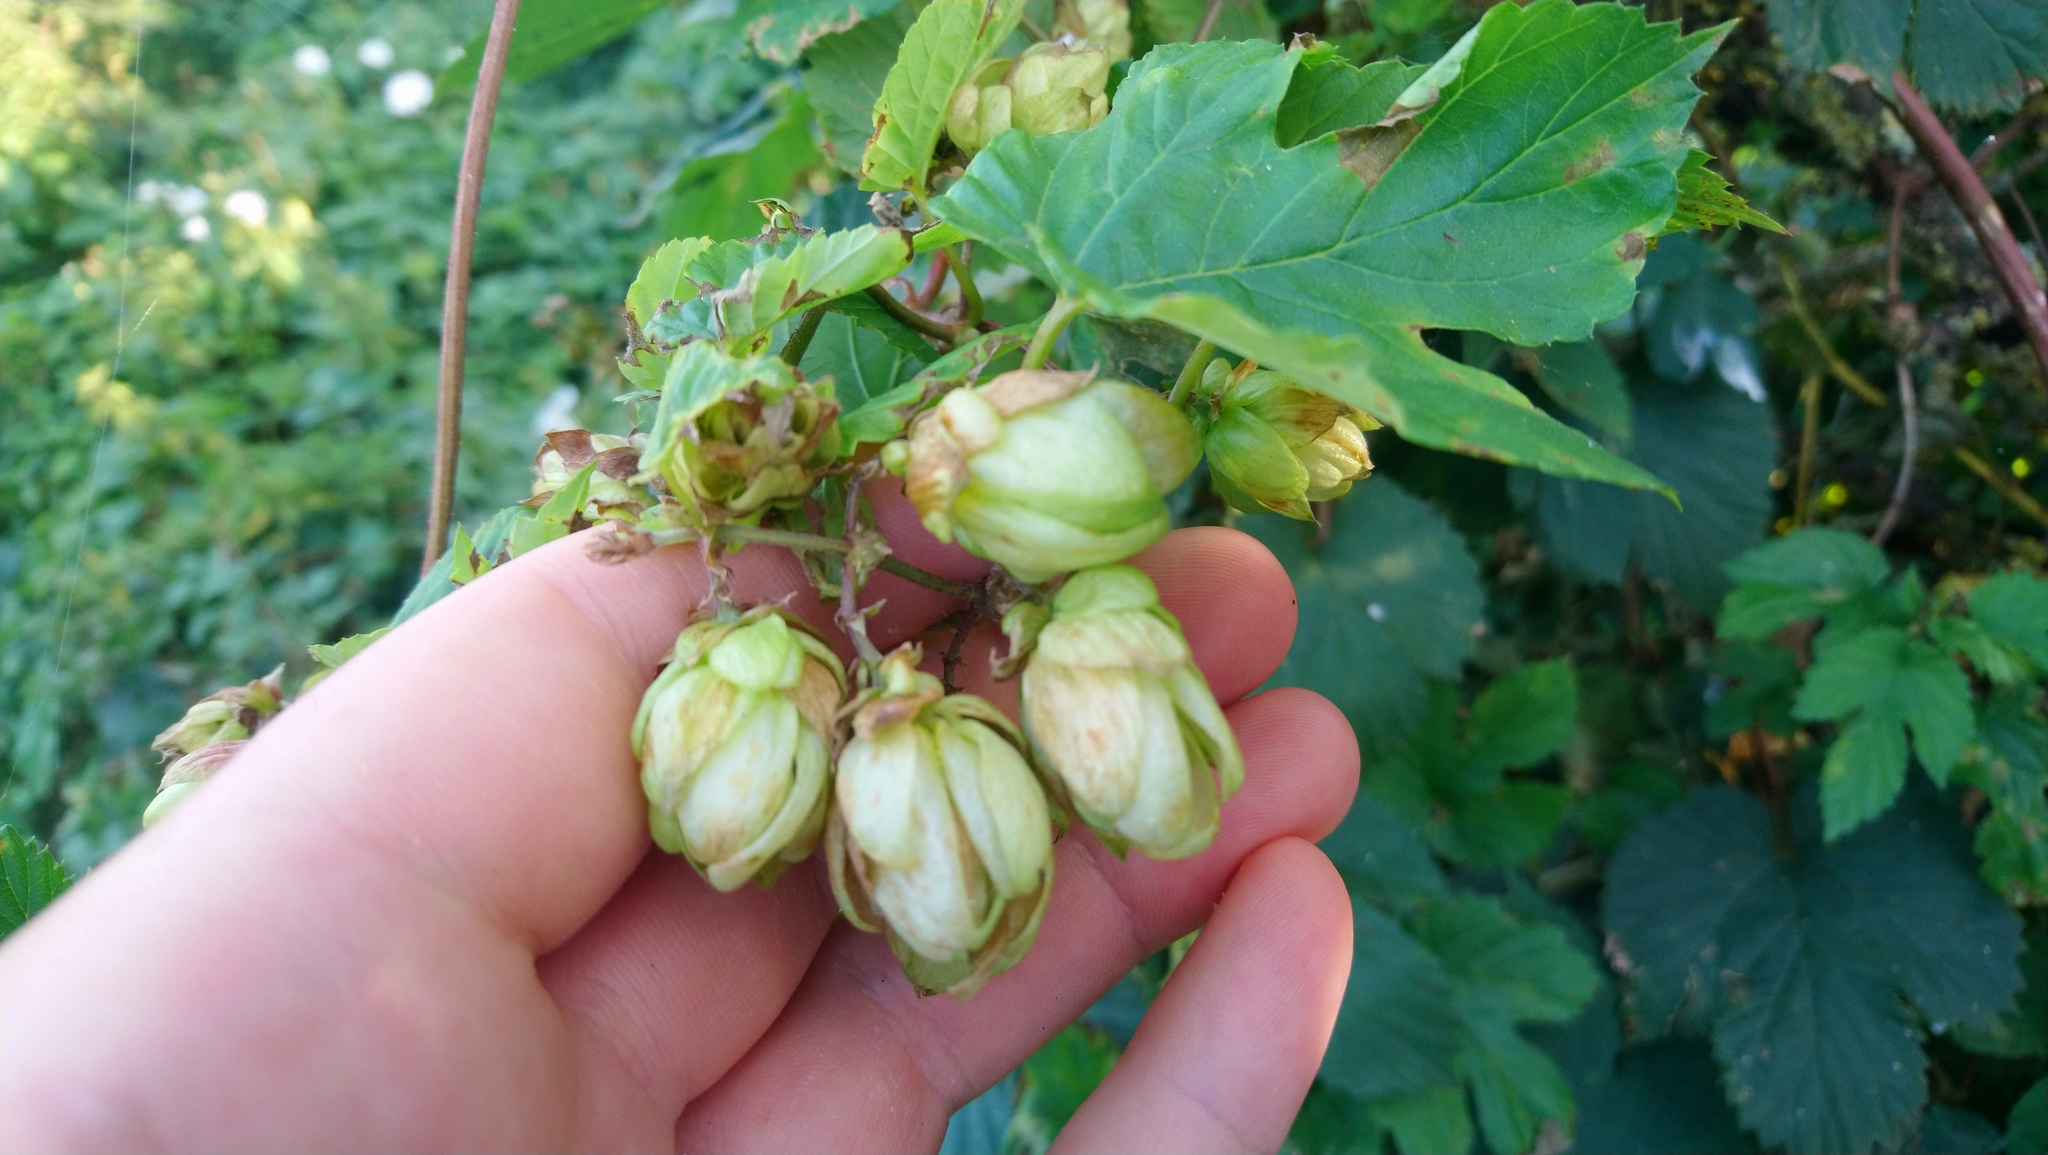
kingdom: Plantae
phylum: Tracheophyta
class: Magnoliopsida
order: Rosales
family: Cannabaceae
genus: Humulus
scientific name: Humulus lupulus
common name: Hop
